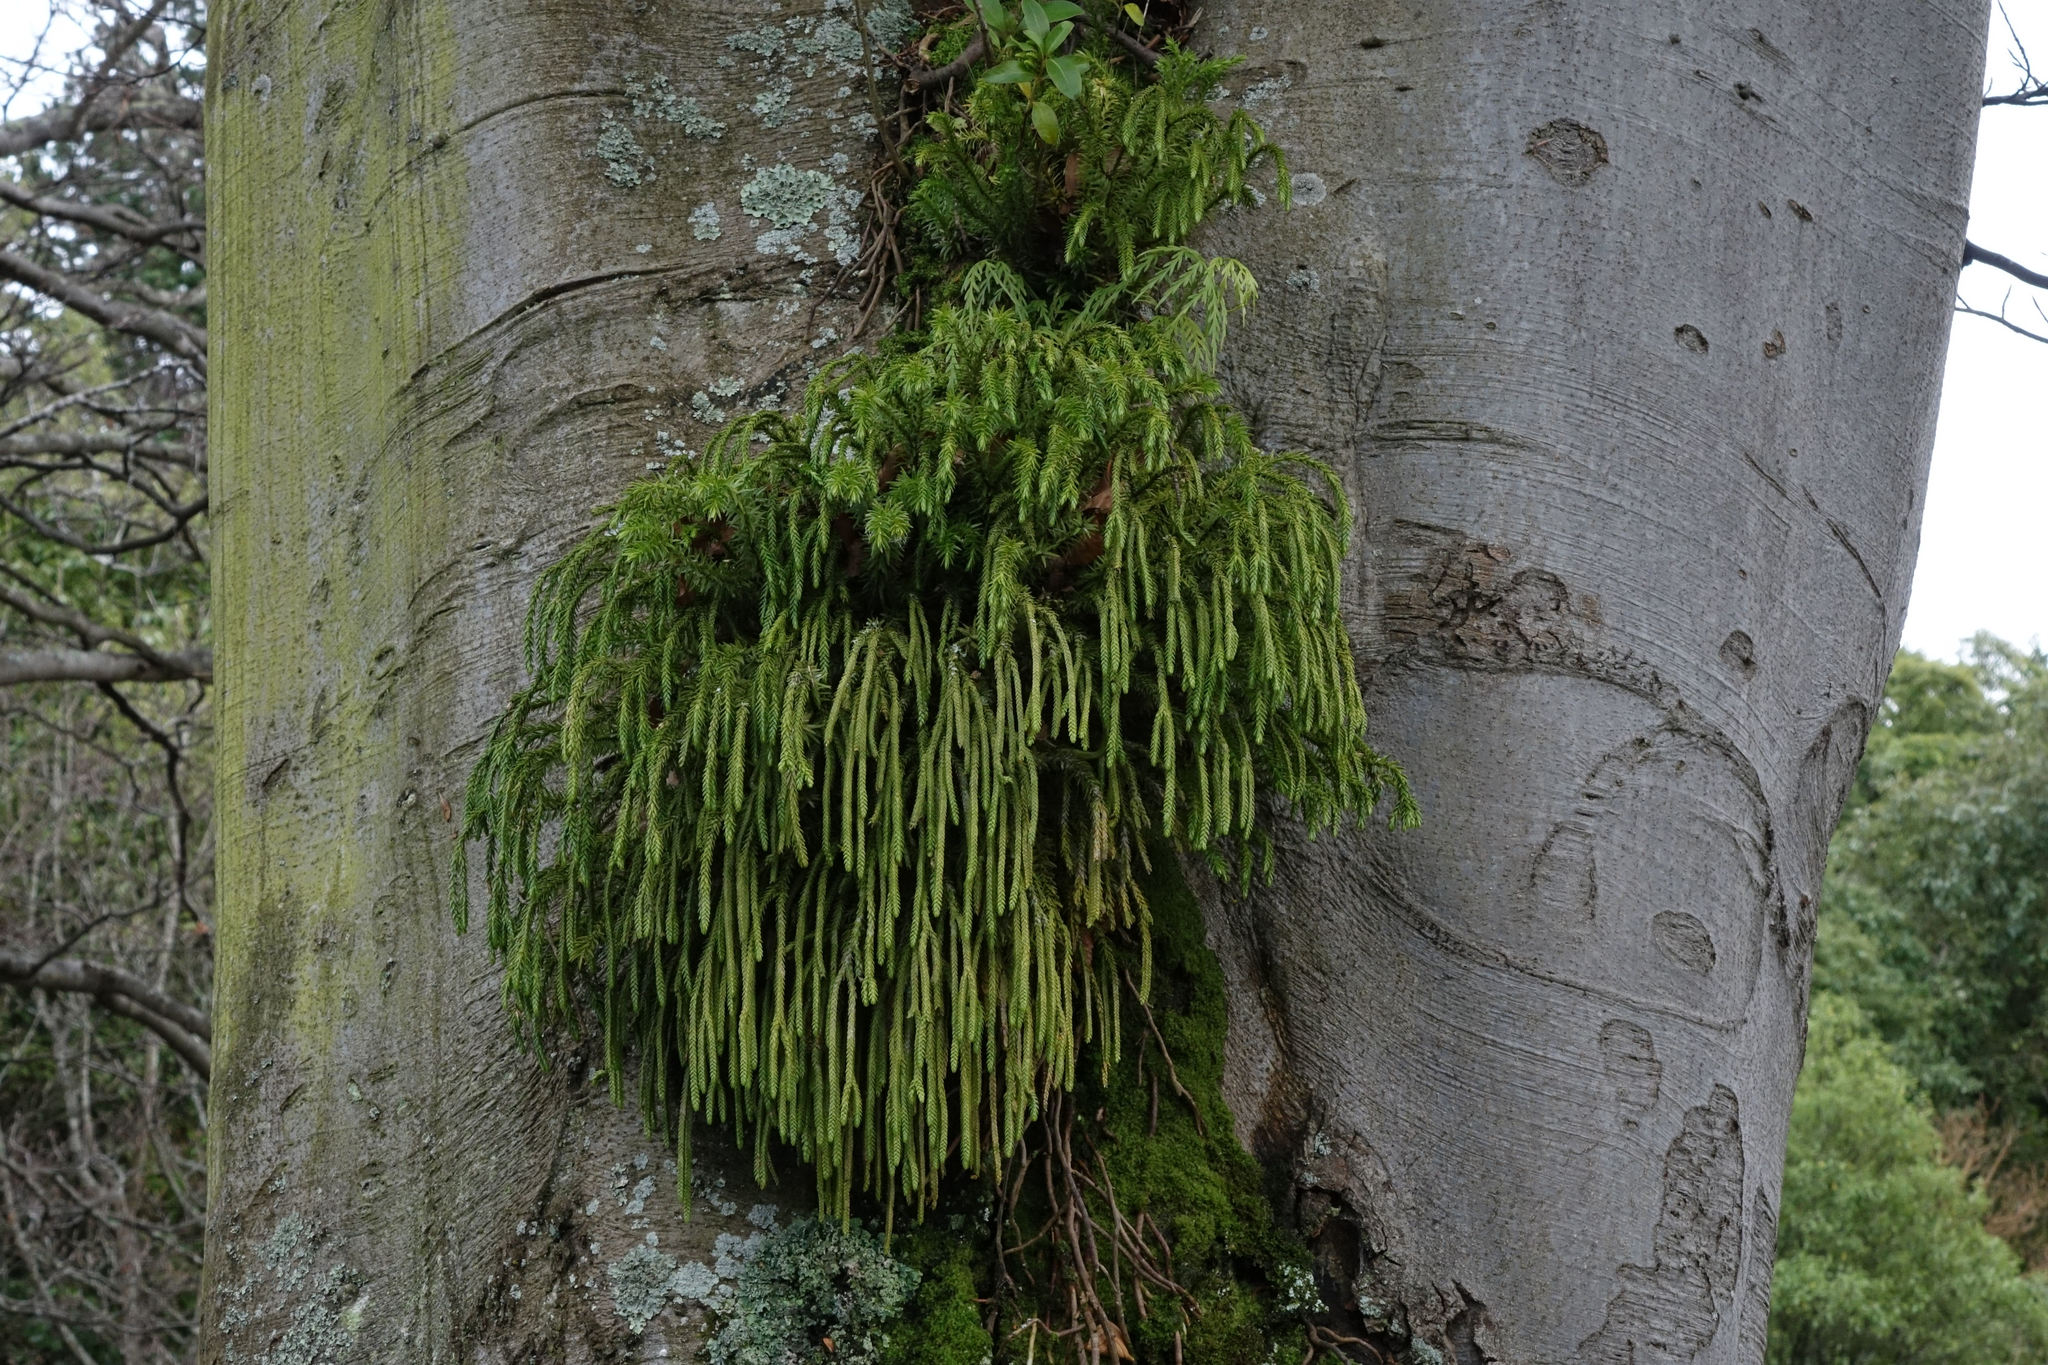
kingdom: Plantae
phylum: Tracheophyta
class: Lycopodiopsida
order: Lycopodiales
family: Lycopodiaceae
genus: Phlegmariurus
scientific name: Phlegmariurus varius
